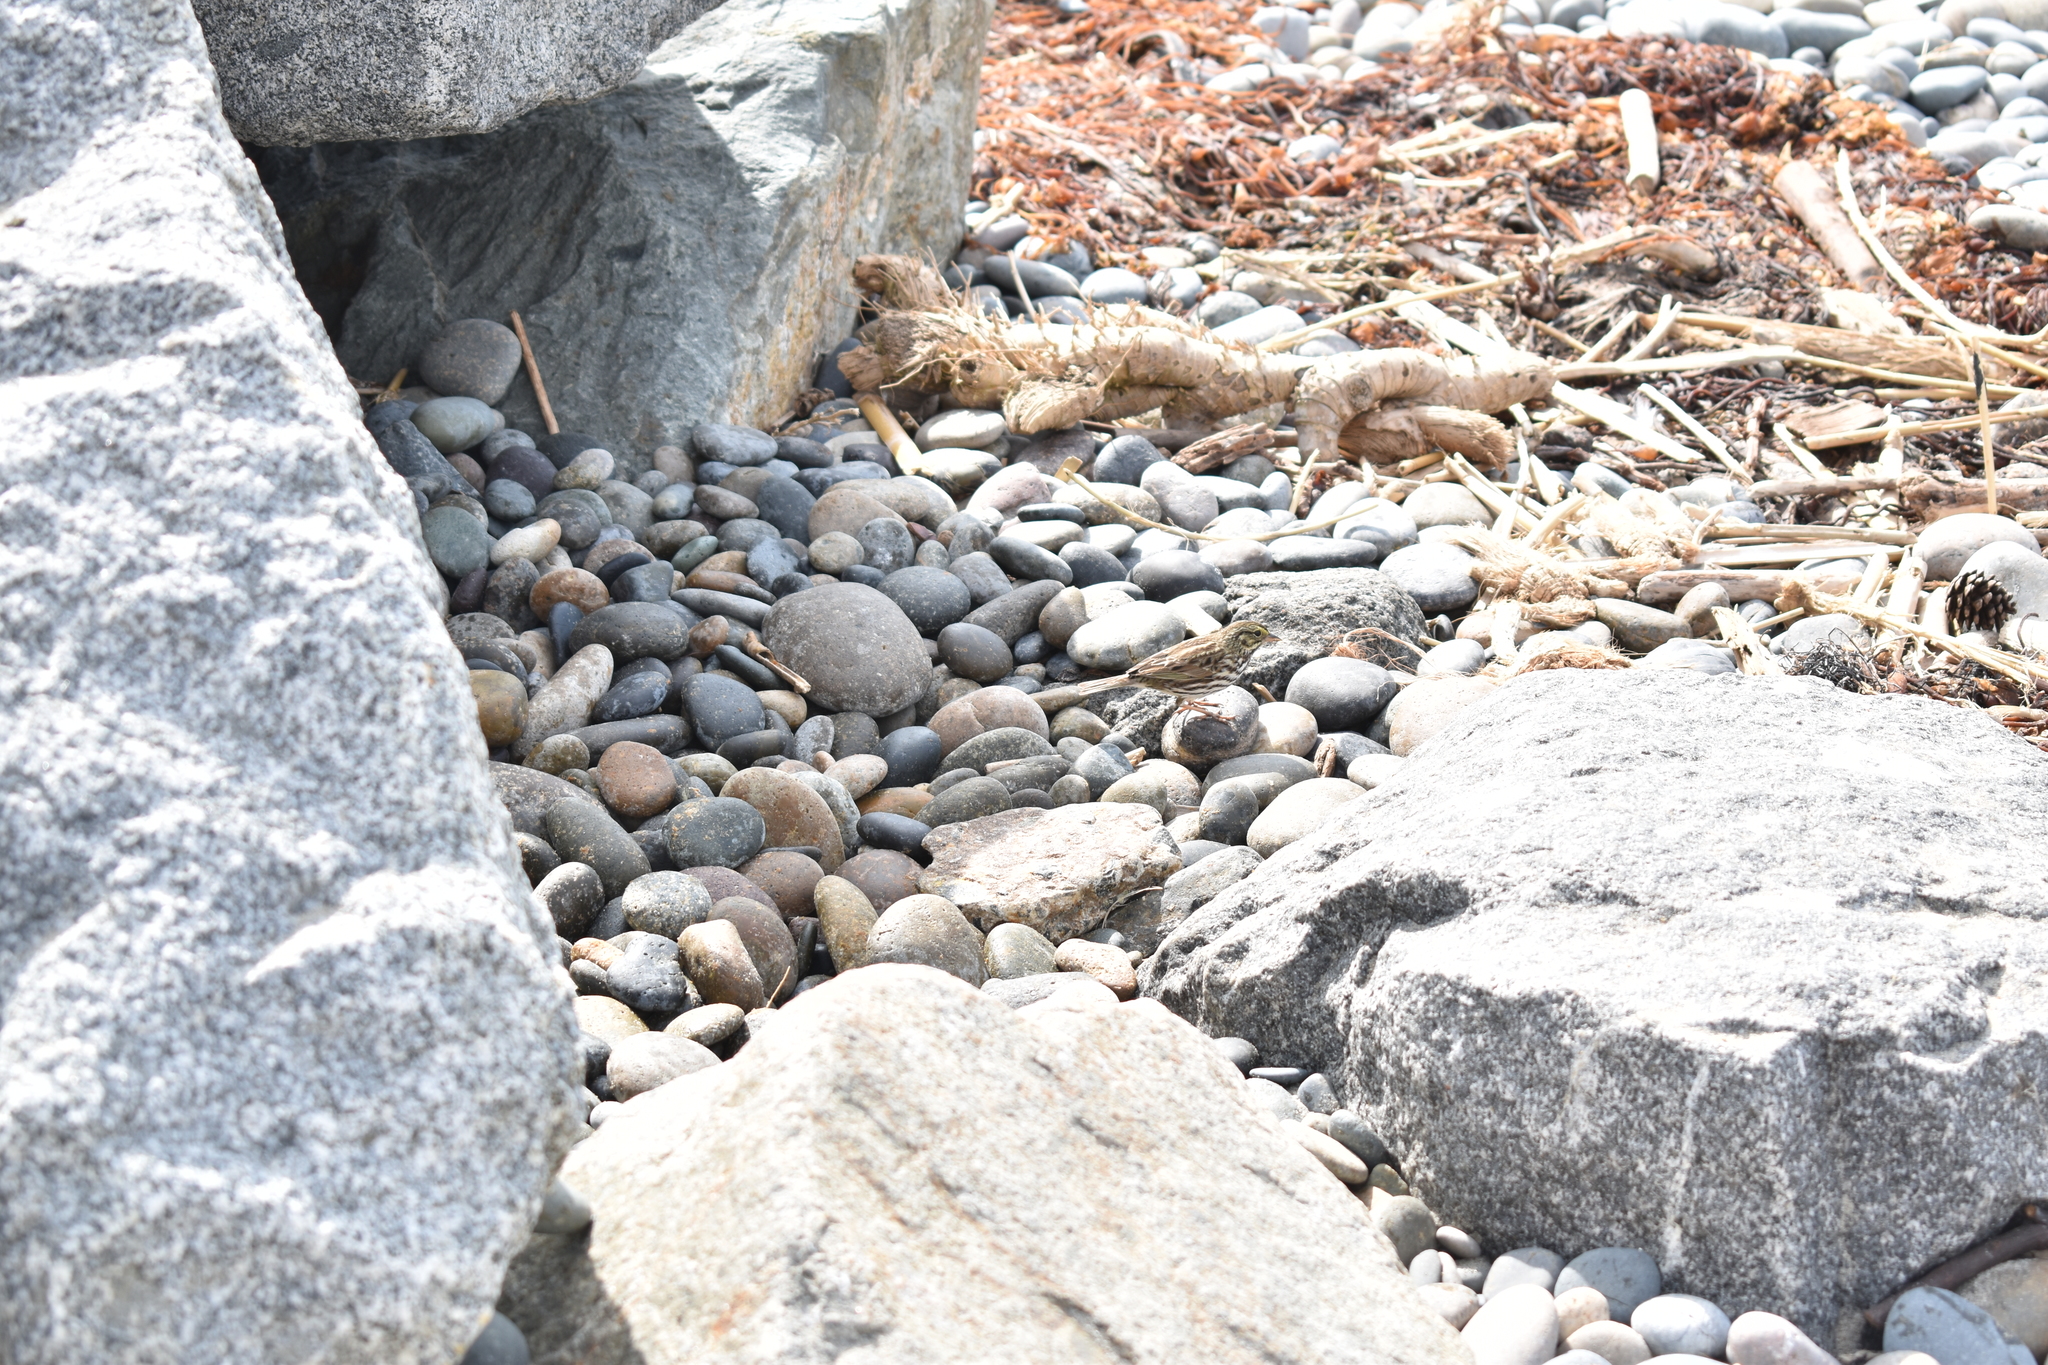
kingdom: Animalia
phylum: Chordata
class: Aves
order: Passeriformes
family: Passerellidae
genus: Passerculus
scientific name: Passerculus sandwichensis
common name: Savannah sparrow
